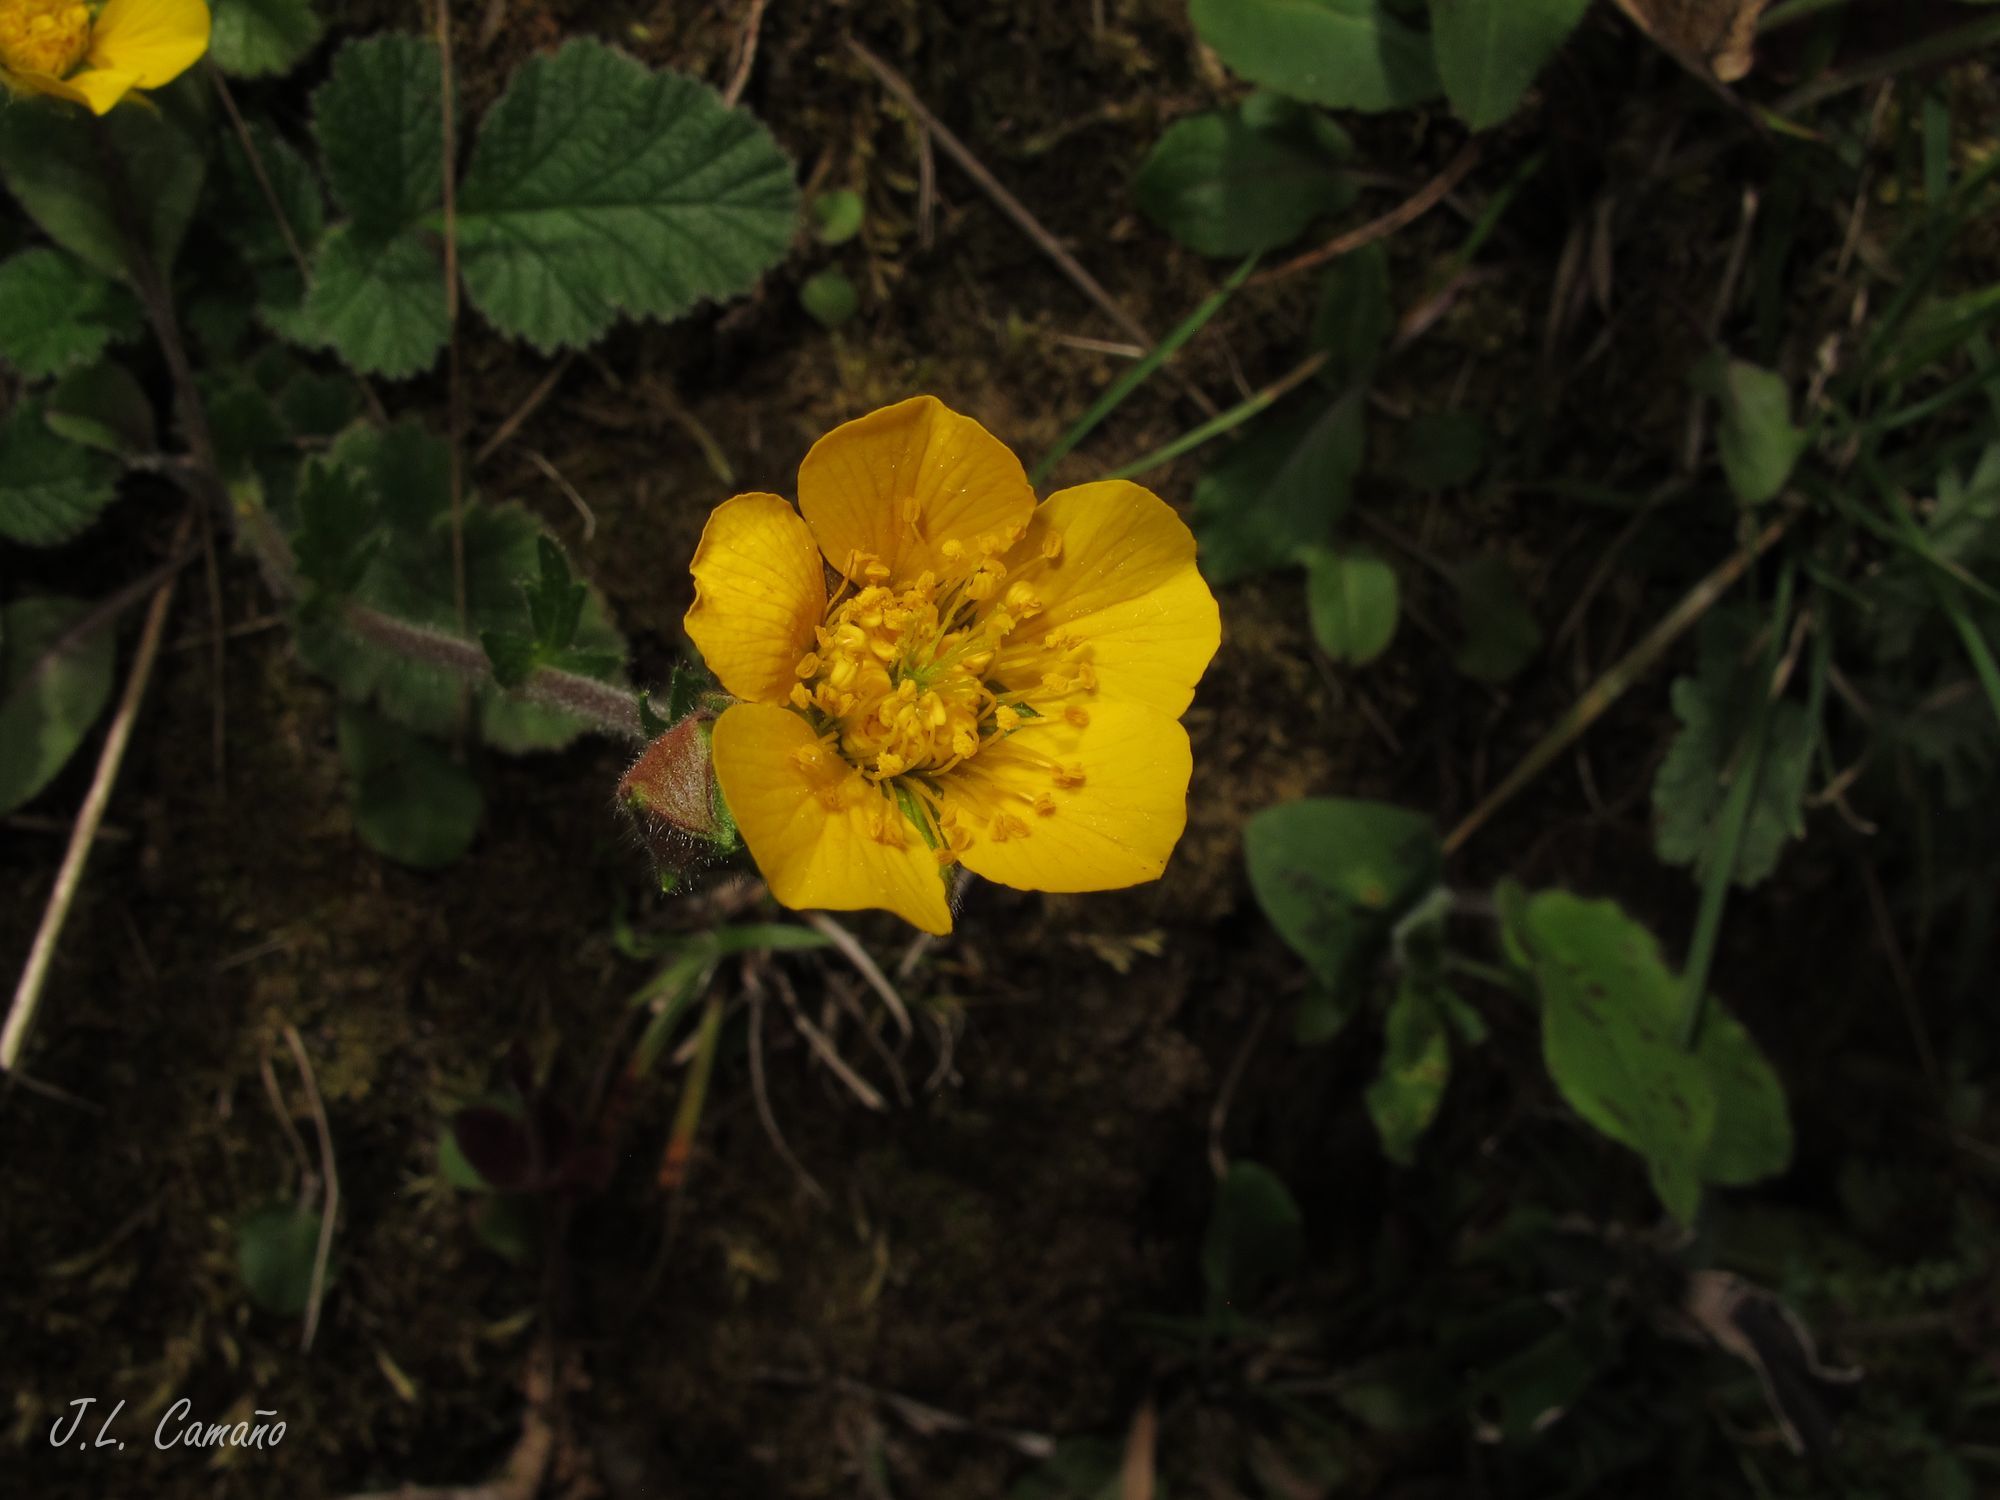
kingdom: Plantae
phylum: Tracheophyta
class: Magnoliopsida
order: Rosales
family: Rosaceae
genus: Geum
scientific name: Geum sylvaticum
